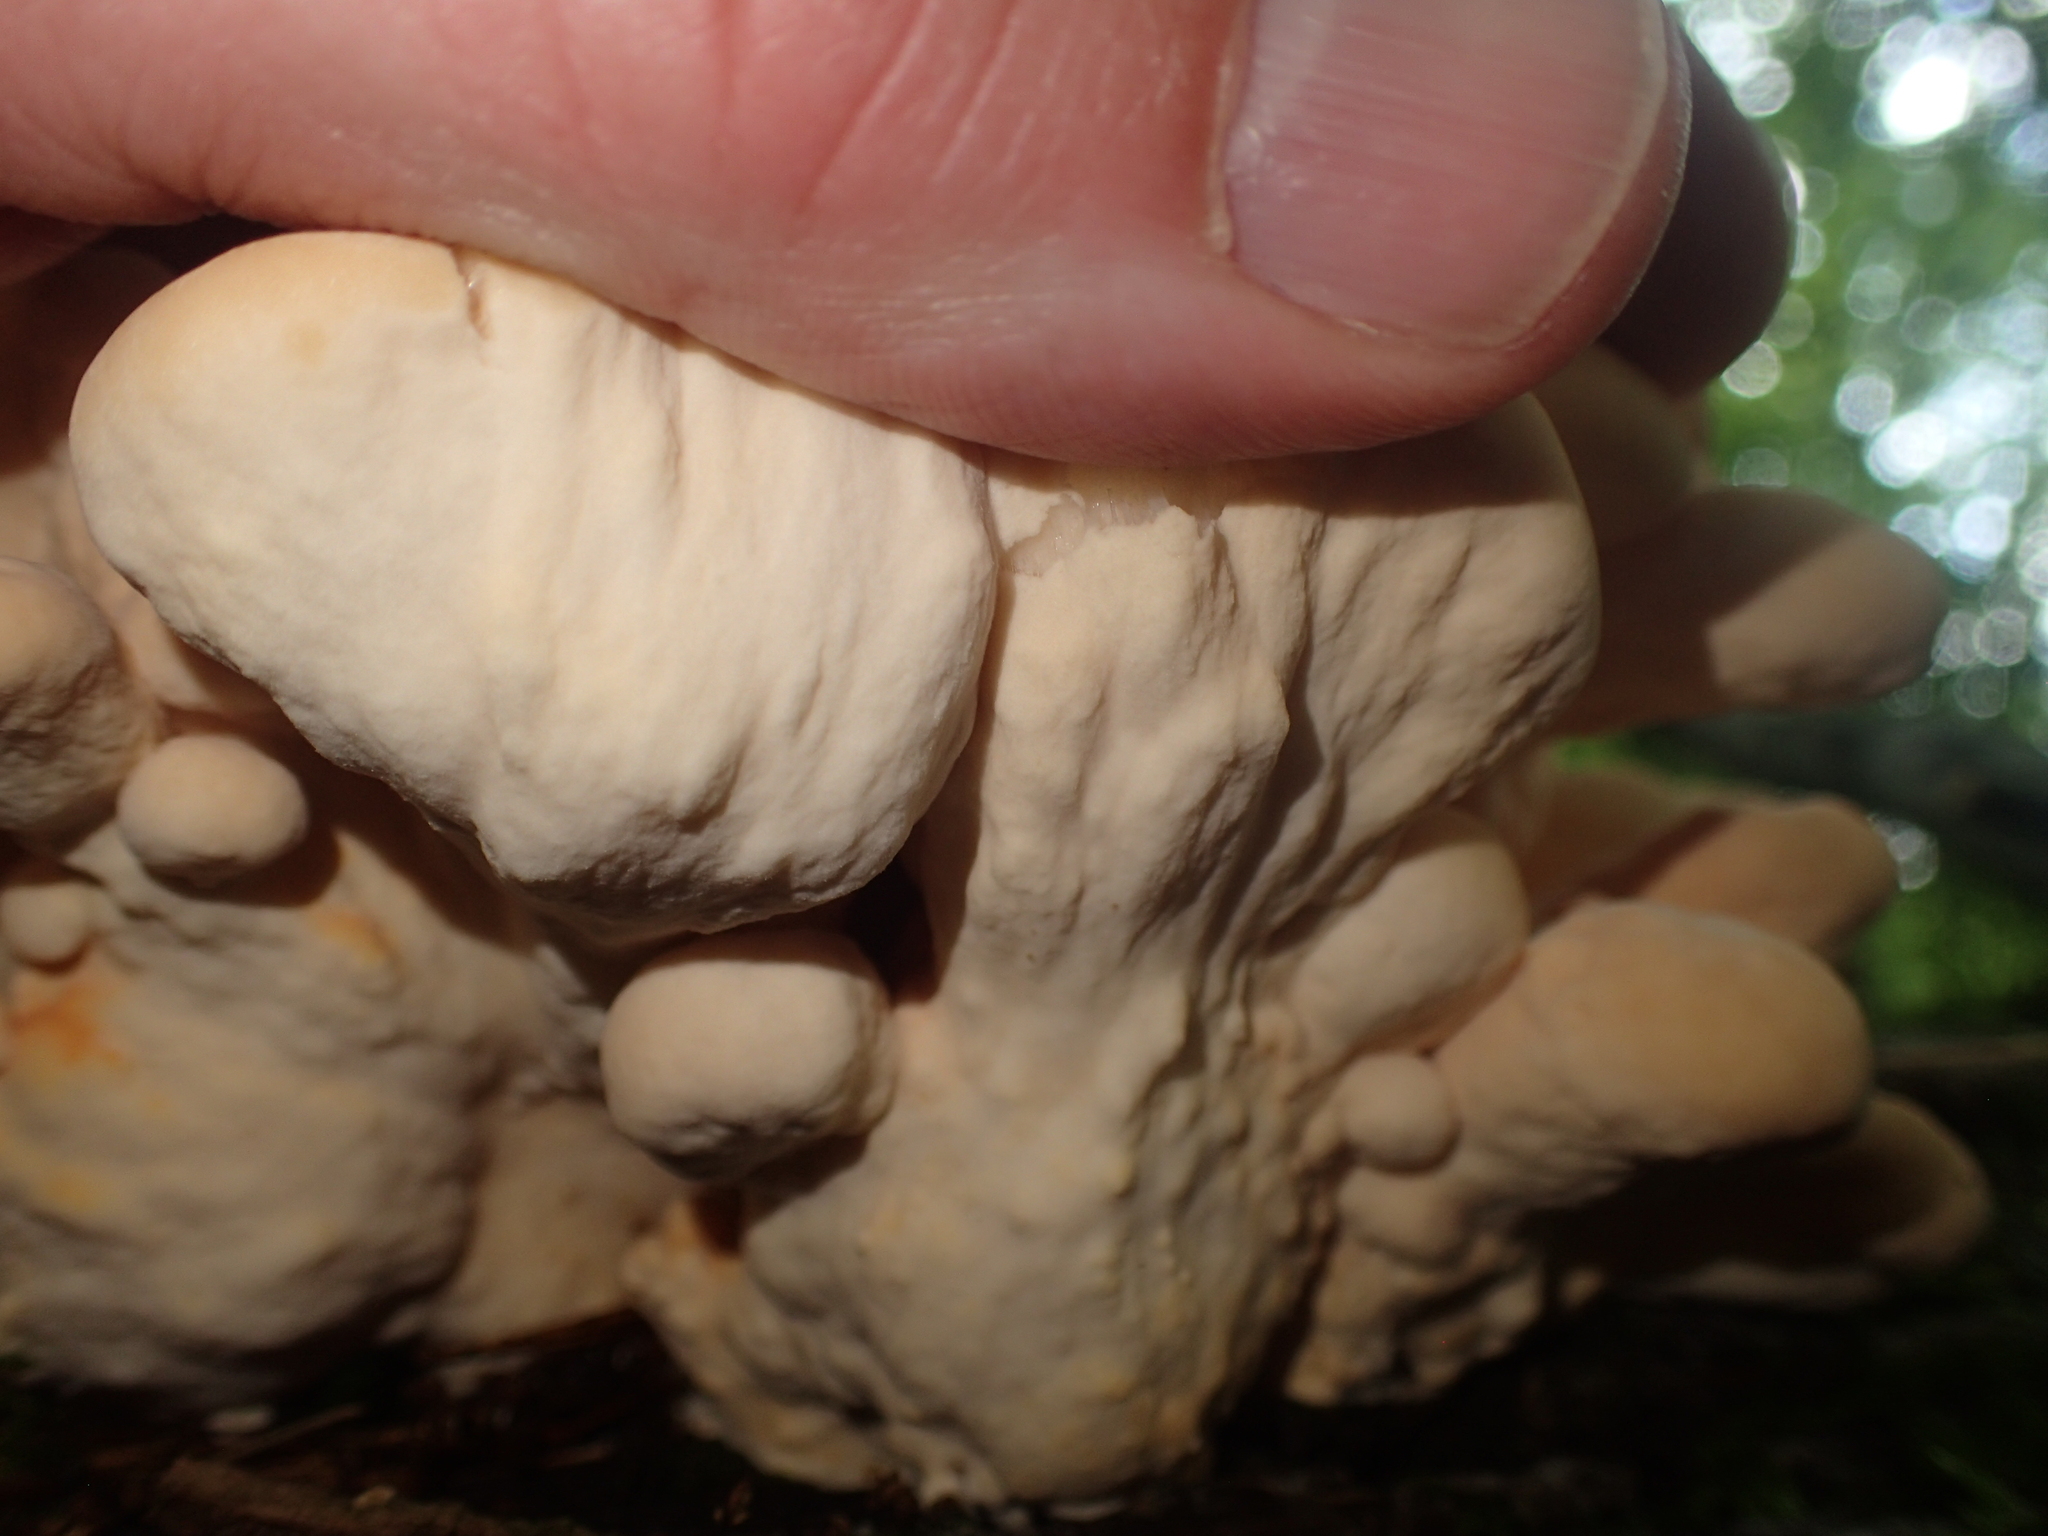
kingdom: Fungi
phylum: Basidiomycota
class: Agaricomycetes
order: Polyporales
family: Laetiporaceae
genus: Laetiporus
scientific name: Laetiporus sulphureus
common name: Chicken of the woods
